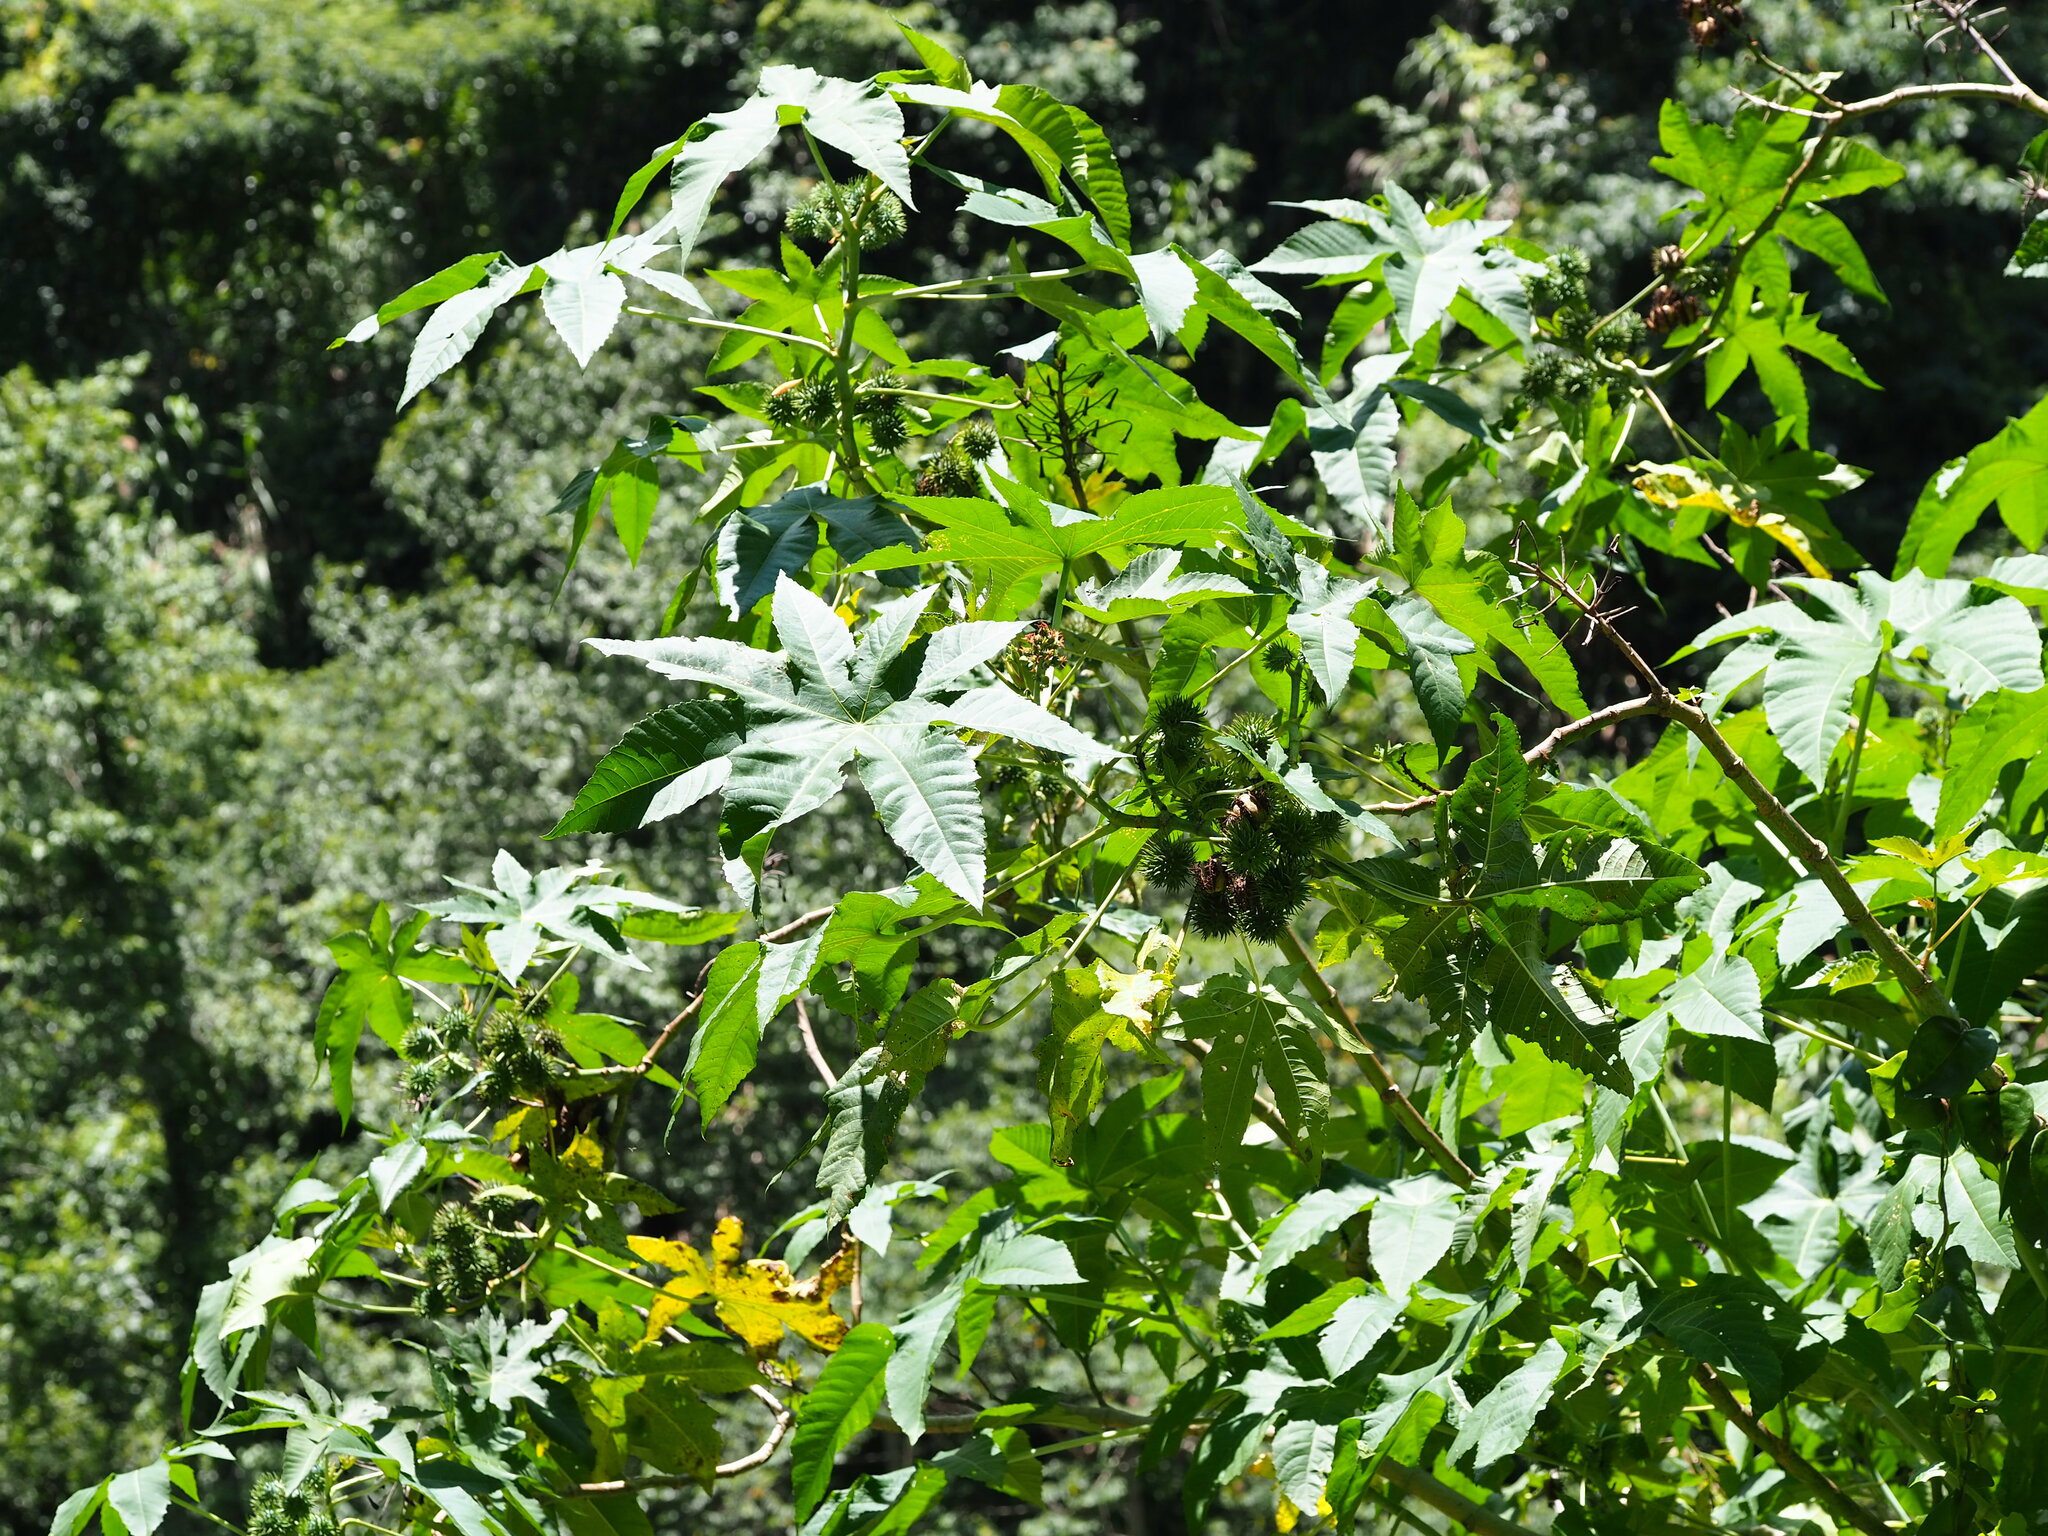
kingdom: Plantae
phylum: Tracheophyta
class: Magnoliopsida
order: Malpighiales
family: Euphorbiaceae
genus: Ricinus
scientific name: Ricinus communis
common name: Castor-oil-plant
